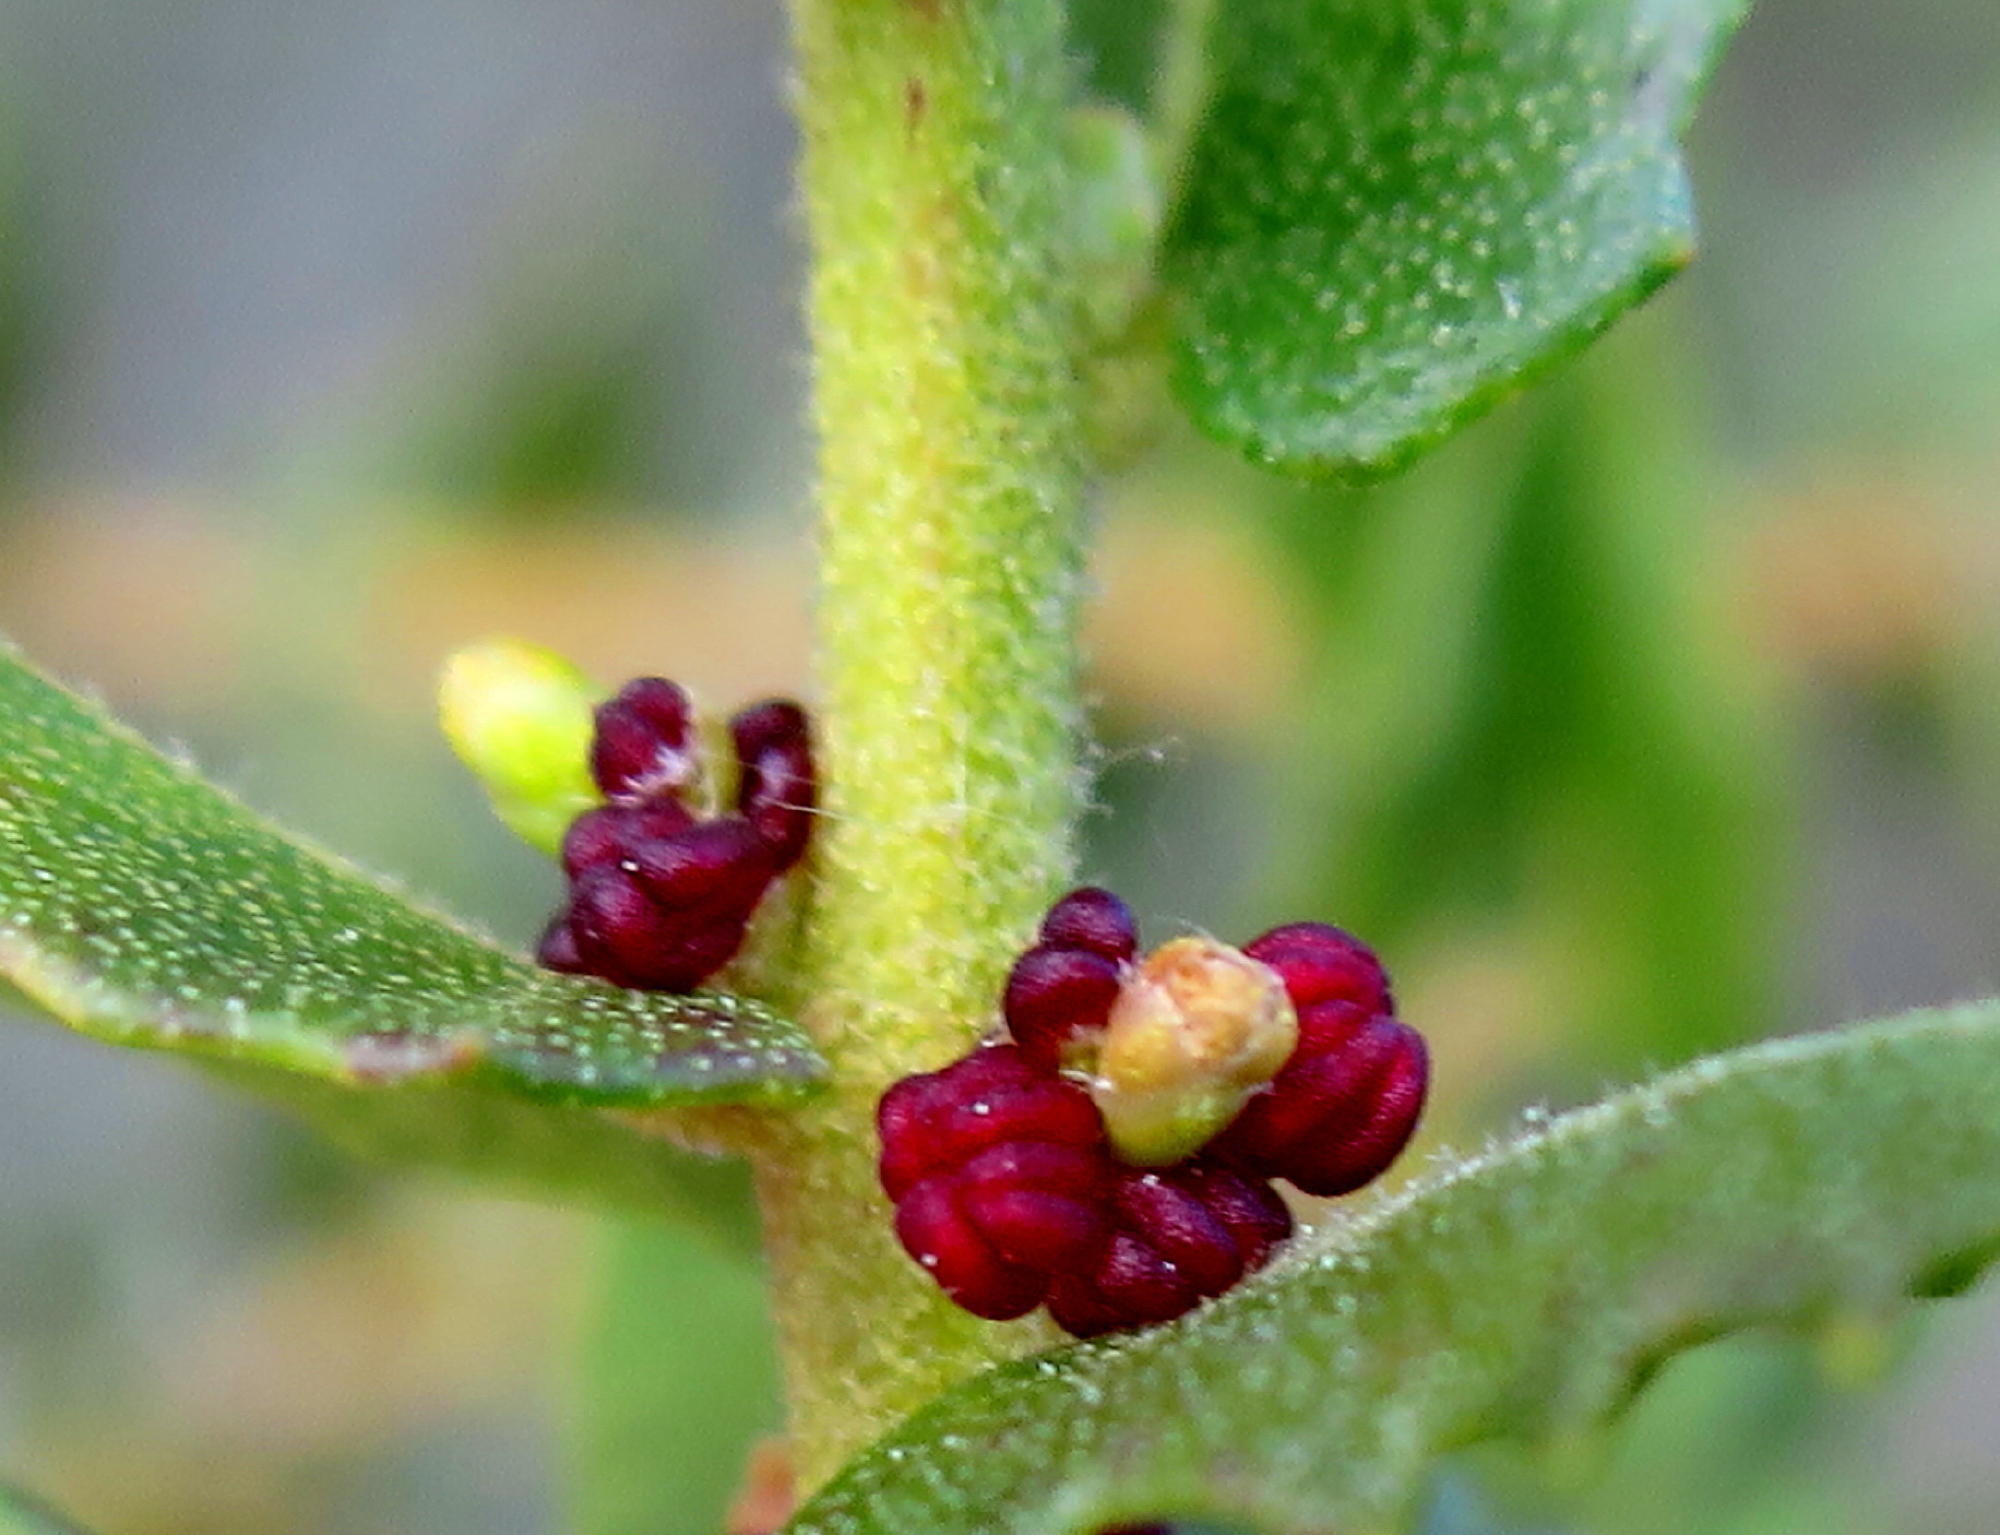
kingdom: Plantae
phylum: Tracheophyta
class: Magnoliopsida
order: Fagales
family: Myricaceae
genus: Morella
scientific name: Morella cordifolia
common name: Waxberry
